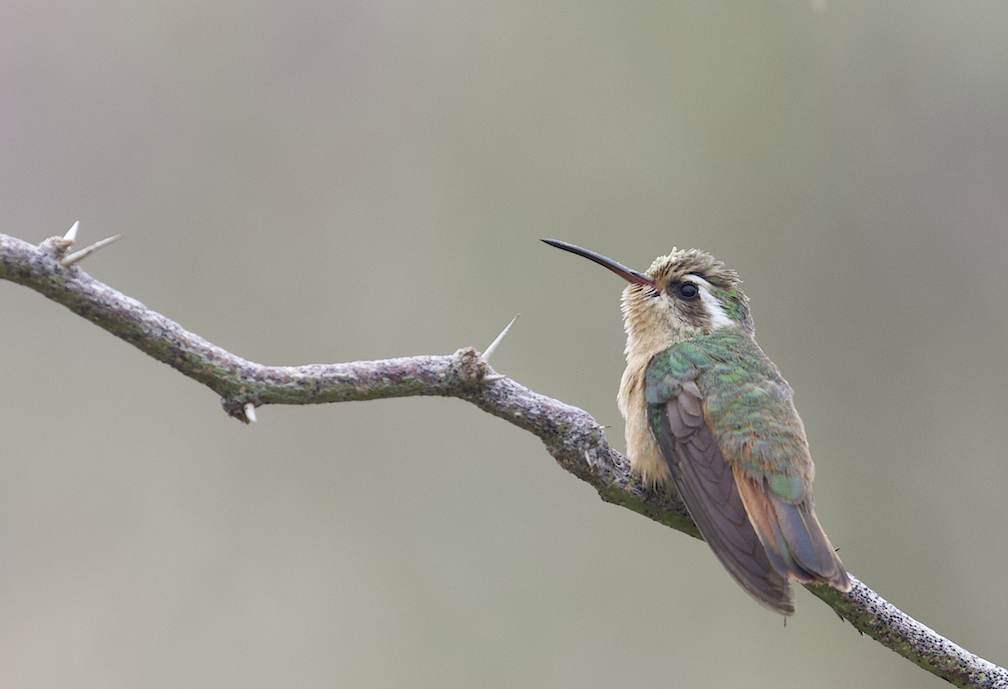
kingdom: Animalia
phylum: Chordata
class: Aves
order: Apodiformes
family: Trochilidae
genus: Basilinna
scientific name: Basilinna xantusii
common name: Xantus's hummingbird
